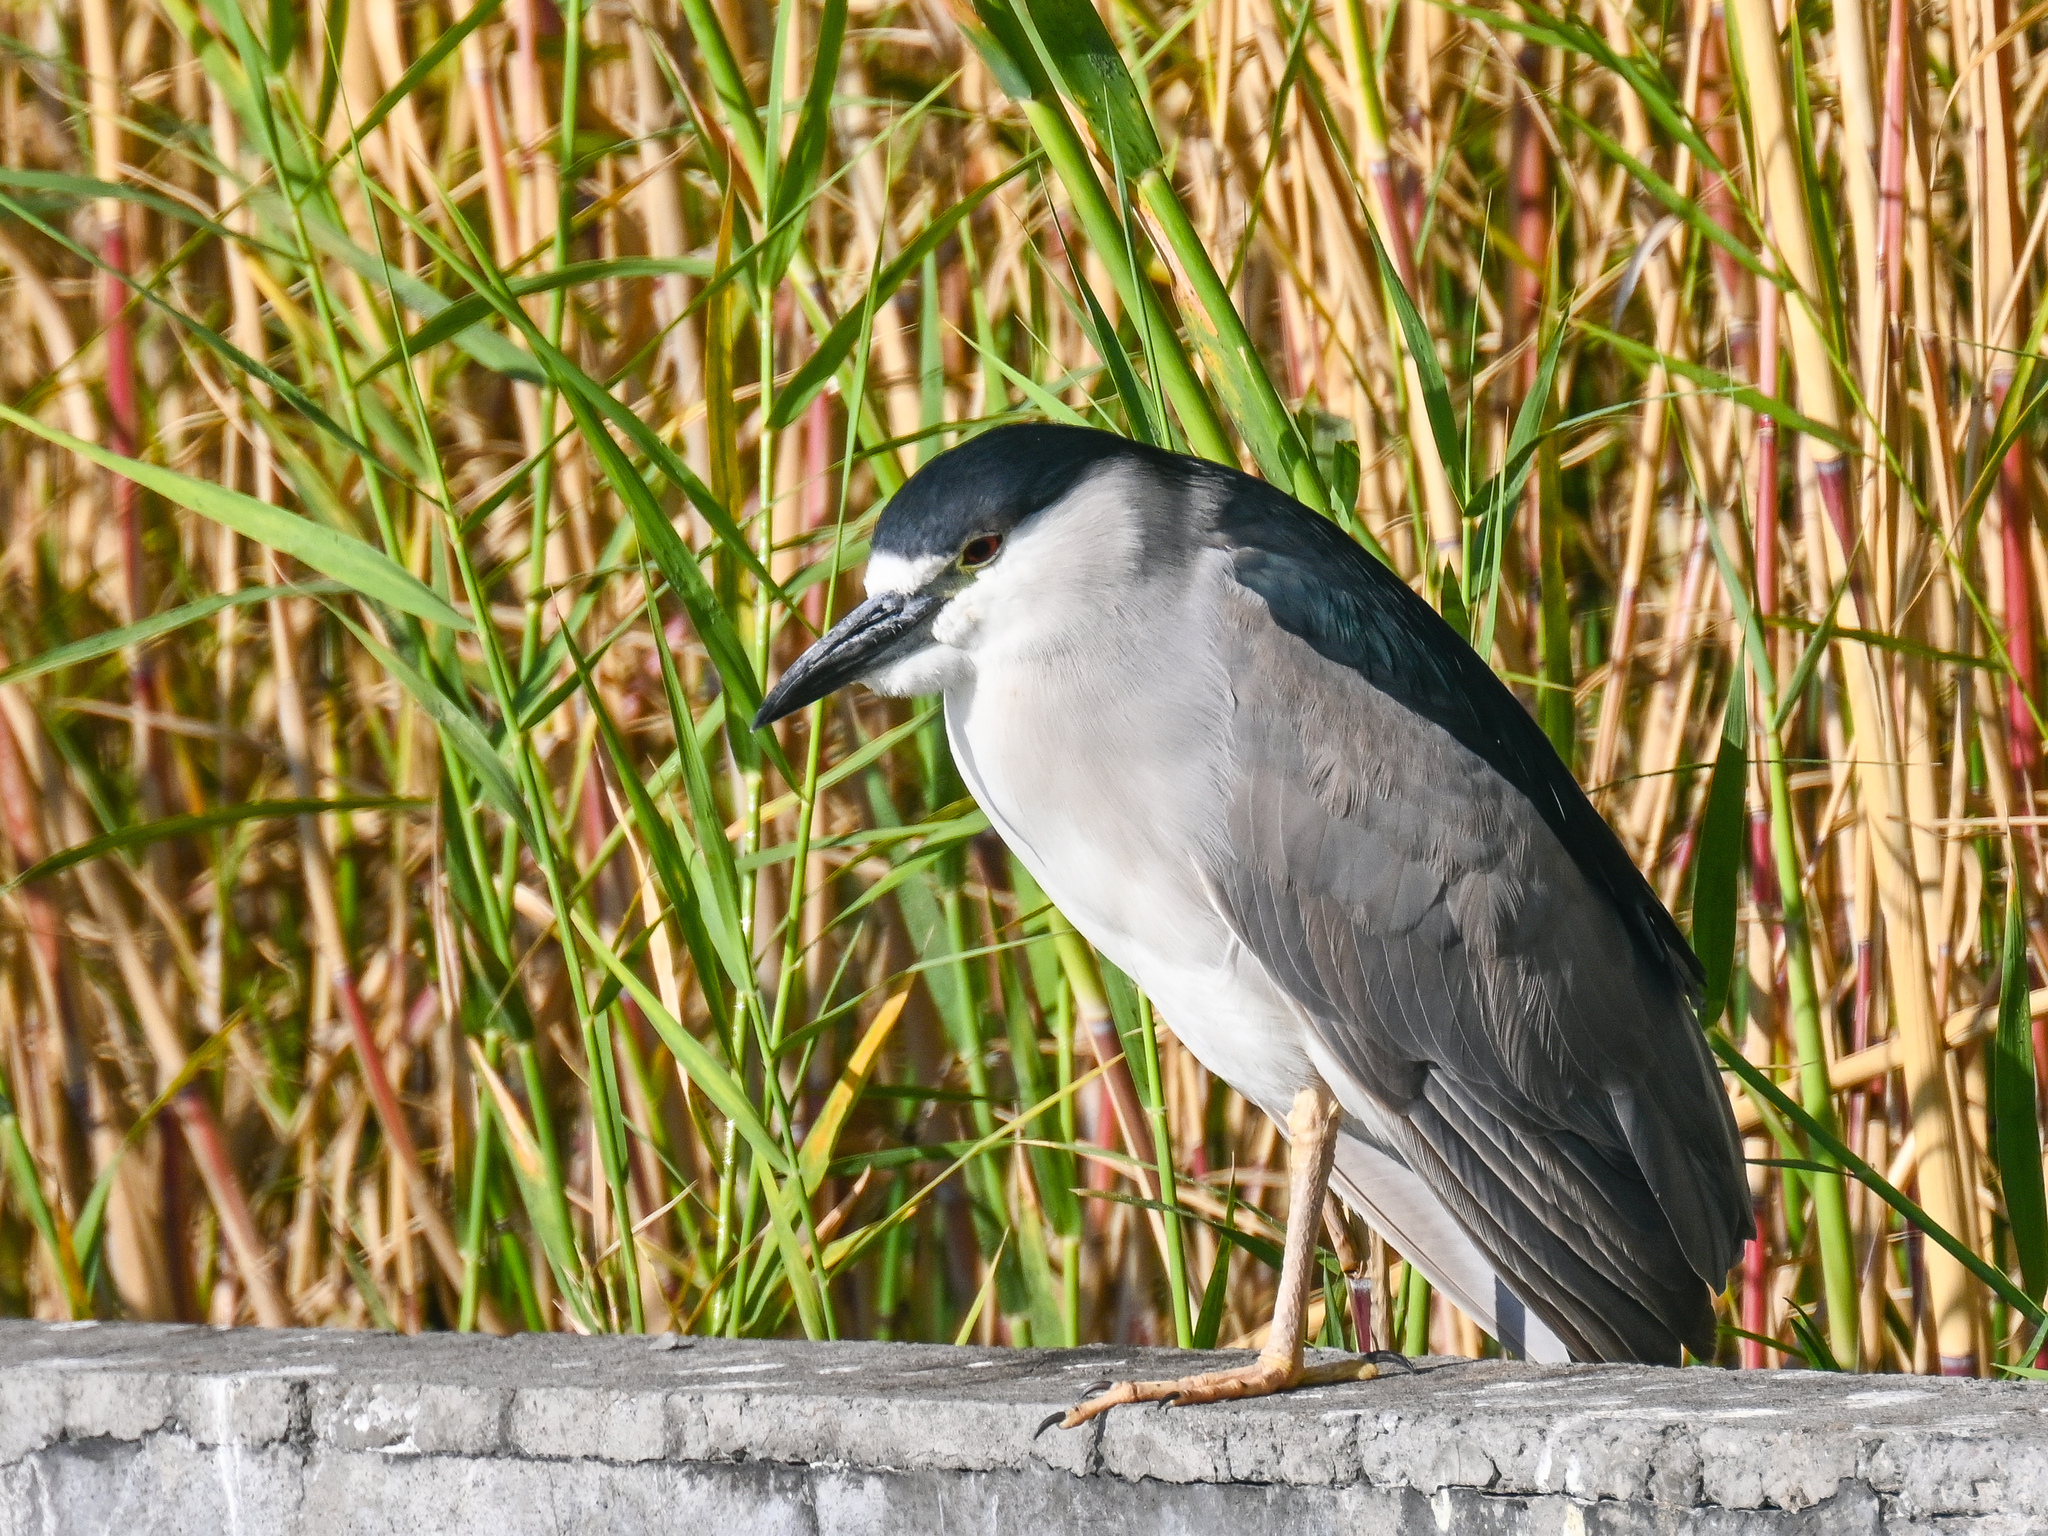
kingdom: Animalia
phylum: Chordata
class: Aves
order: Pelecaniformes
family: Ardeidae
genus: Nycticorax
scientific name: Nycticorax nycticorax
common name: Black-crowned night heron
